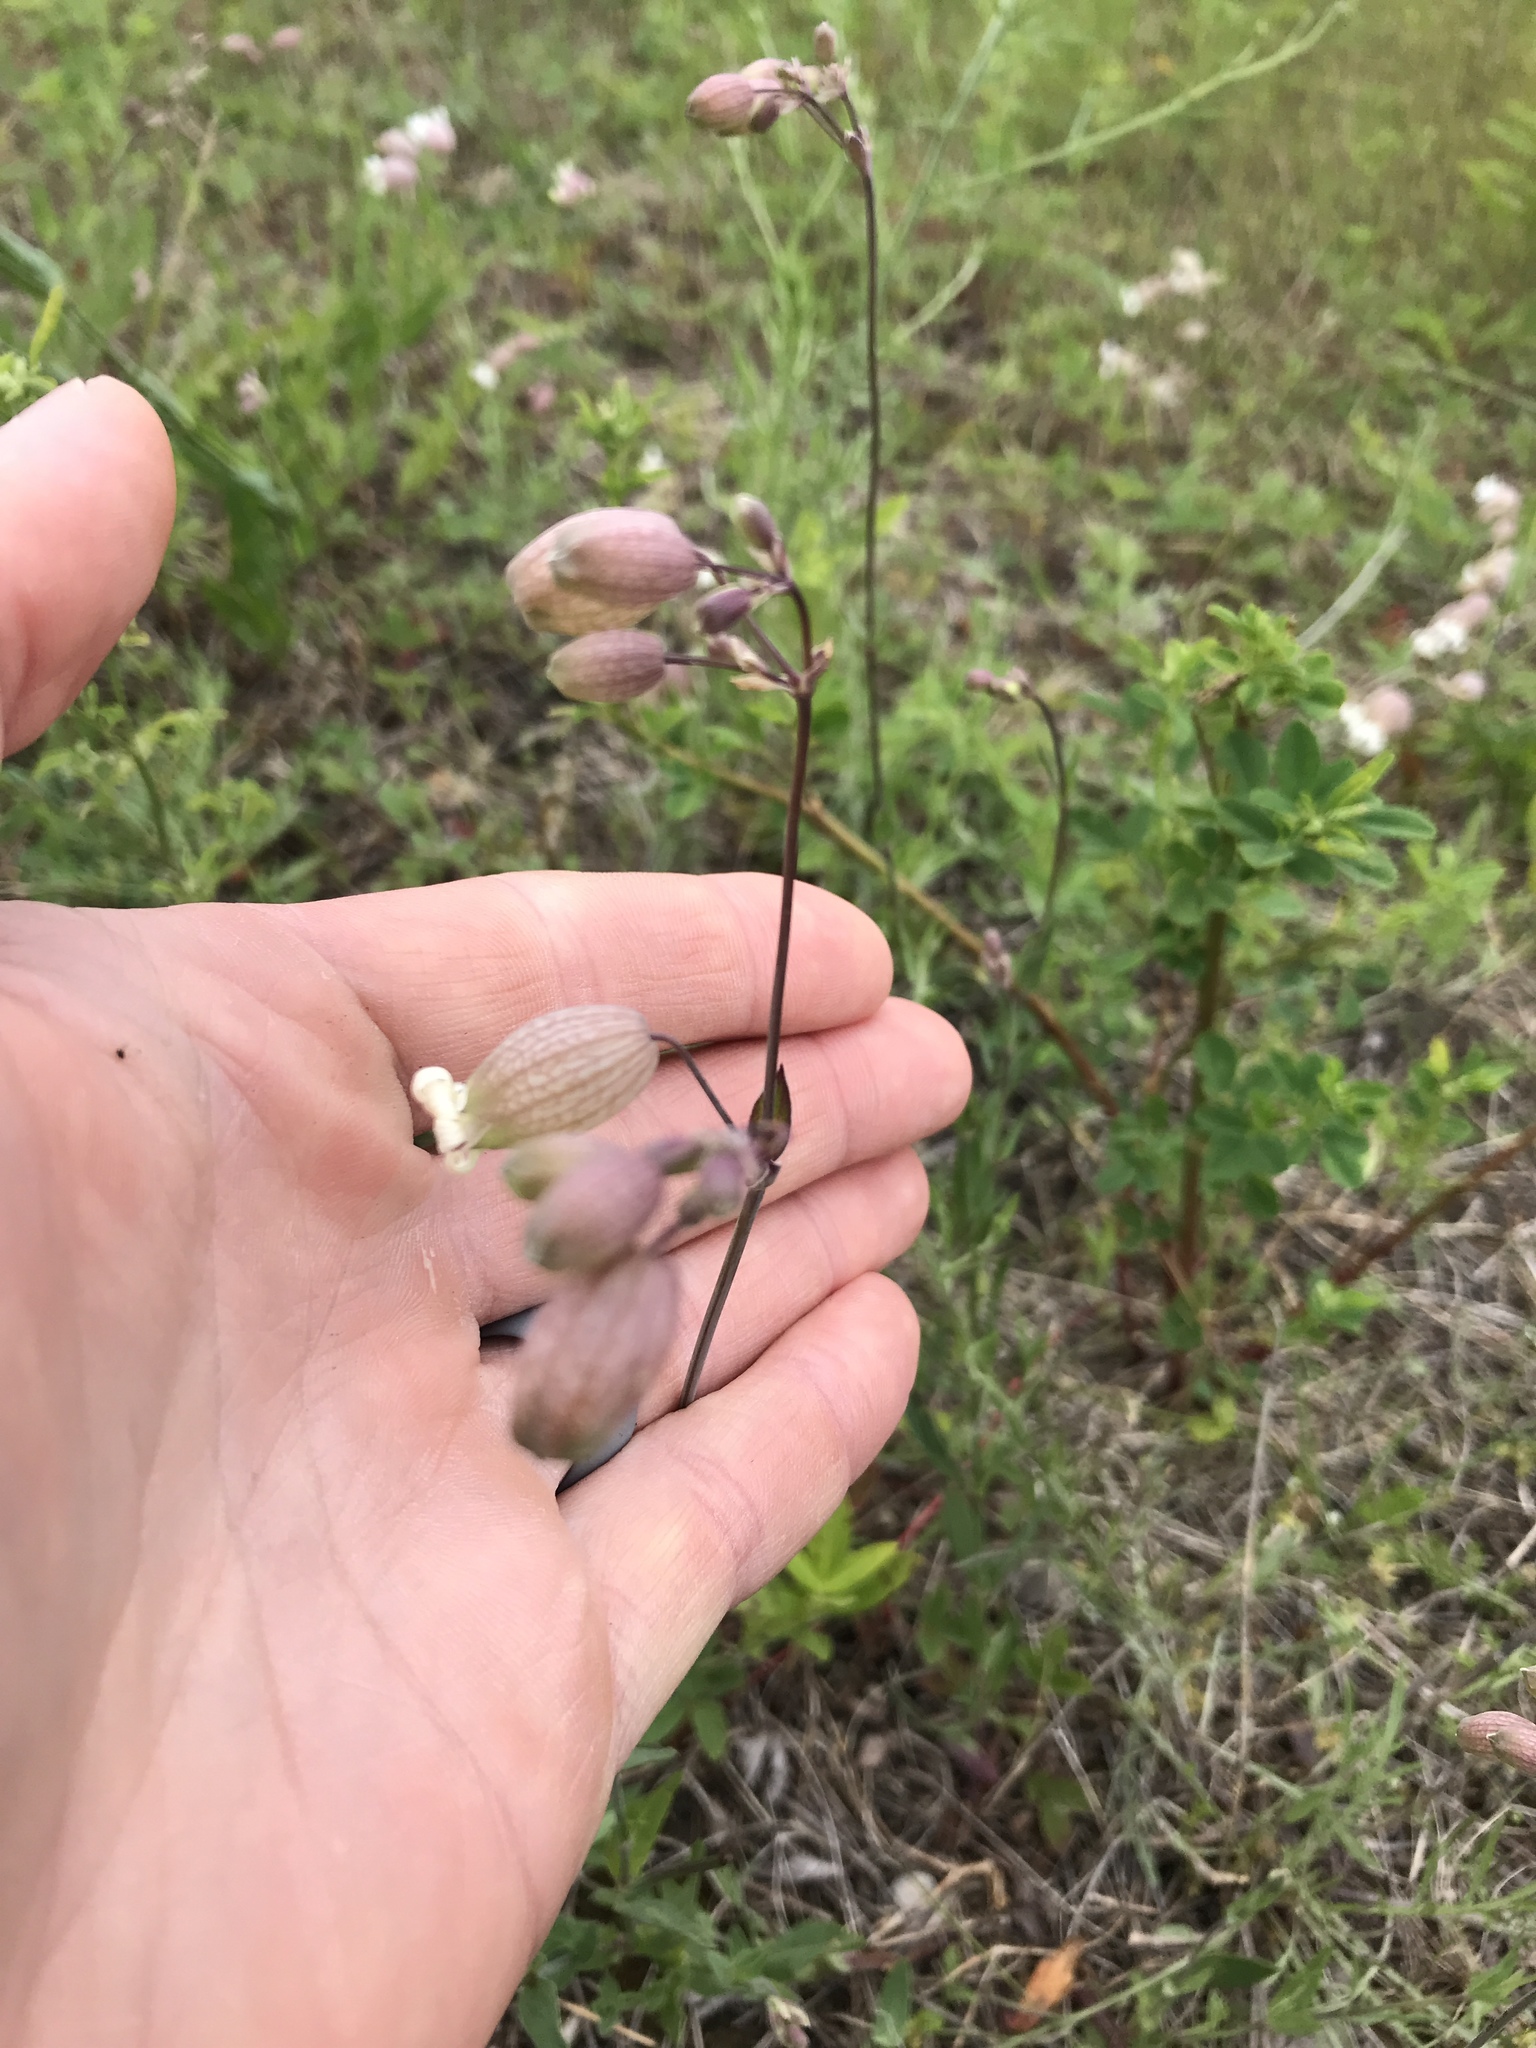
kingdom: Plantae
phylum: Tracheophyta
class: Magnoliopsida
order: Caryophyllales
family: Caryophyllaceae
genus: Silene
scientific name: Silene vulgaris
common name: Bladder campion
